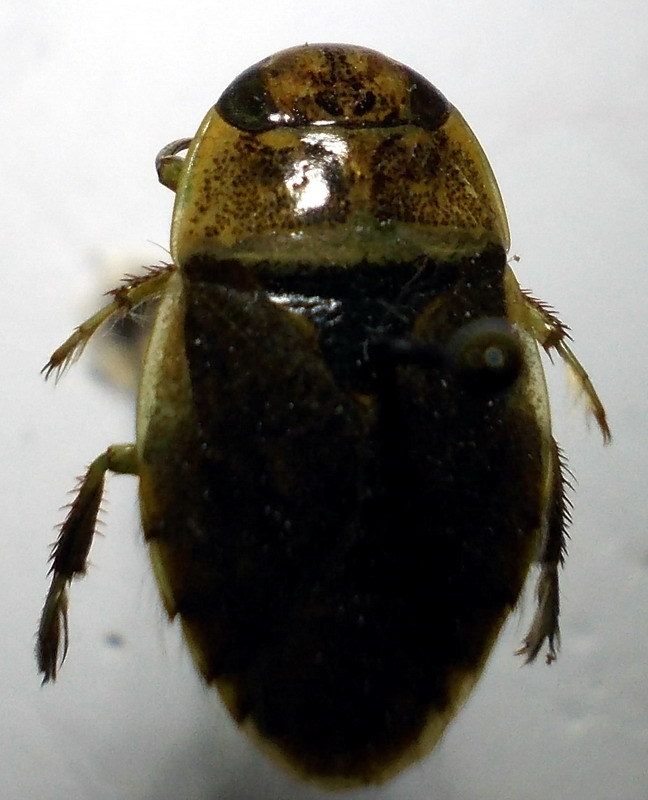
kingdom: Animalia
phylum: Arthropoda
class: Insecta
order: Hemiptera
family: Naucoridae
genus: Ilyocoris
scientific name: Ilyocoris cimicoides
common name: Saucer bugs
